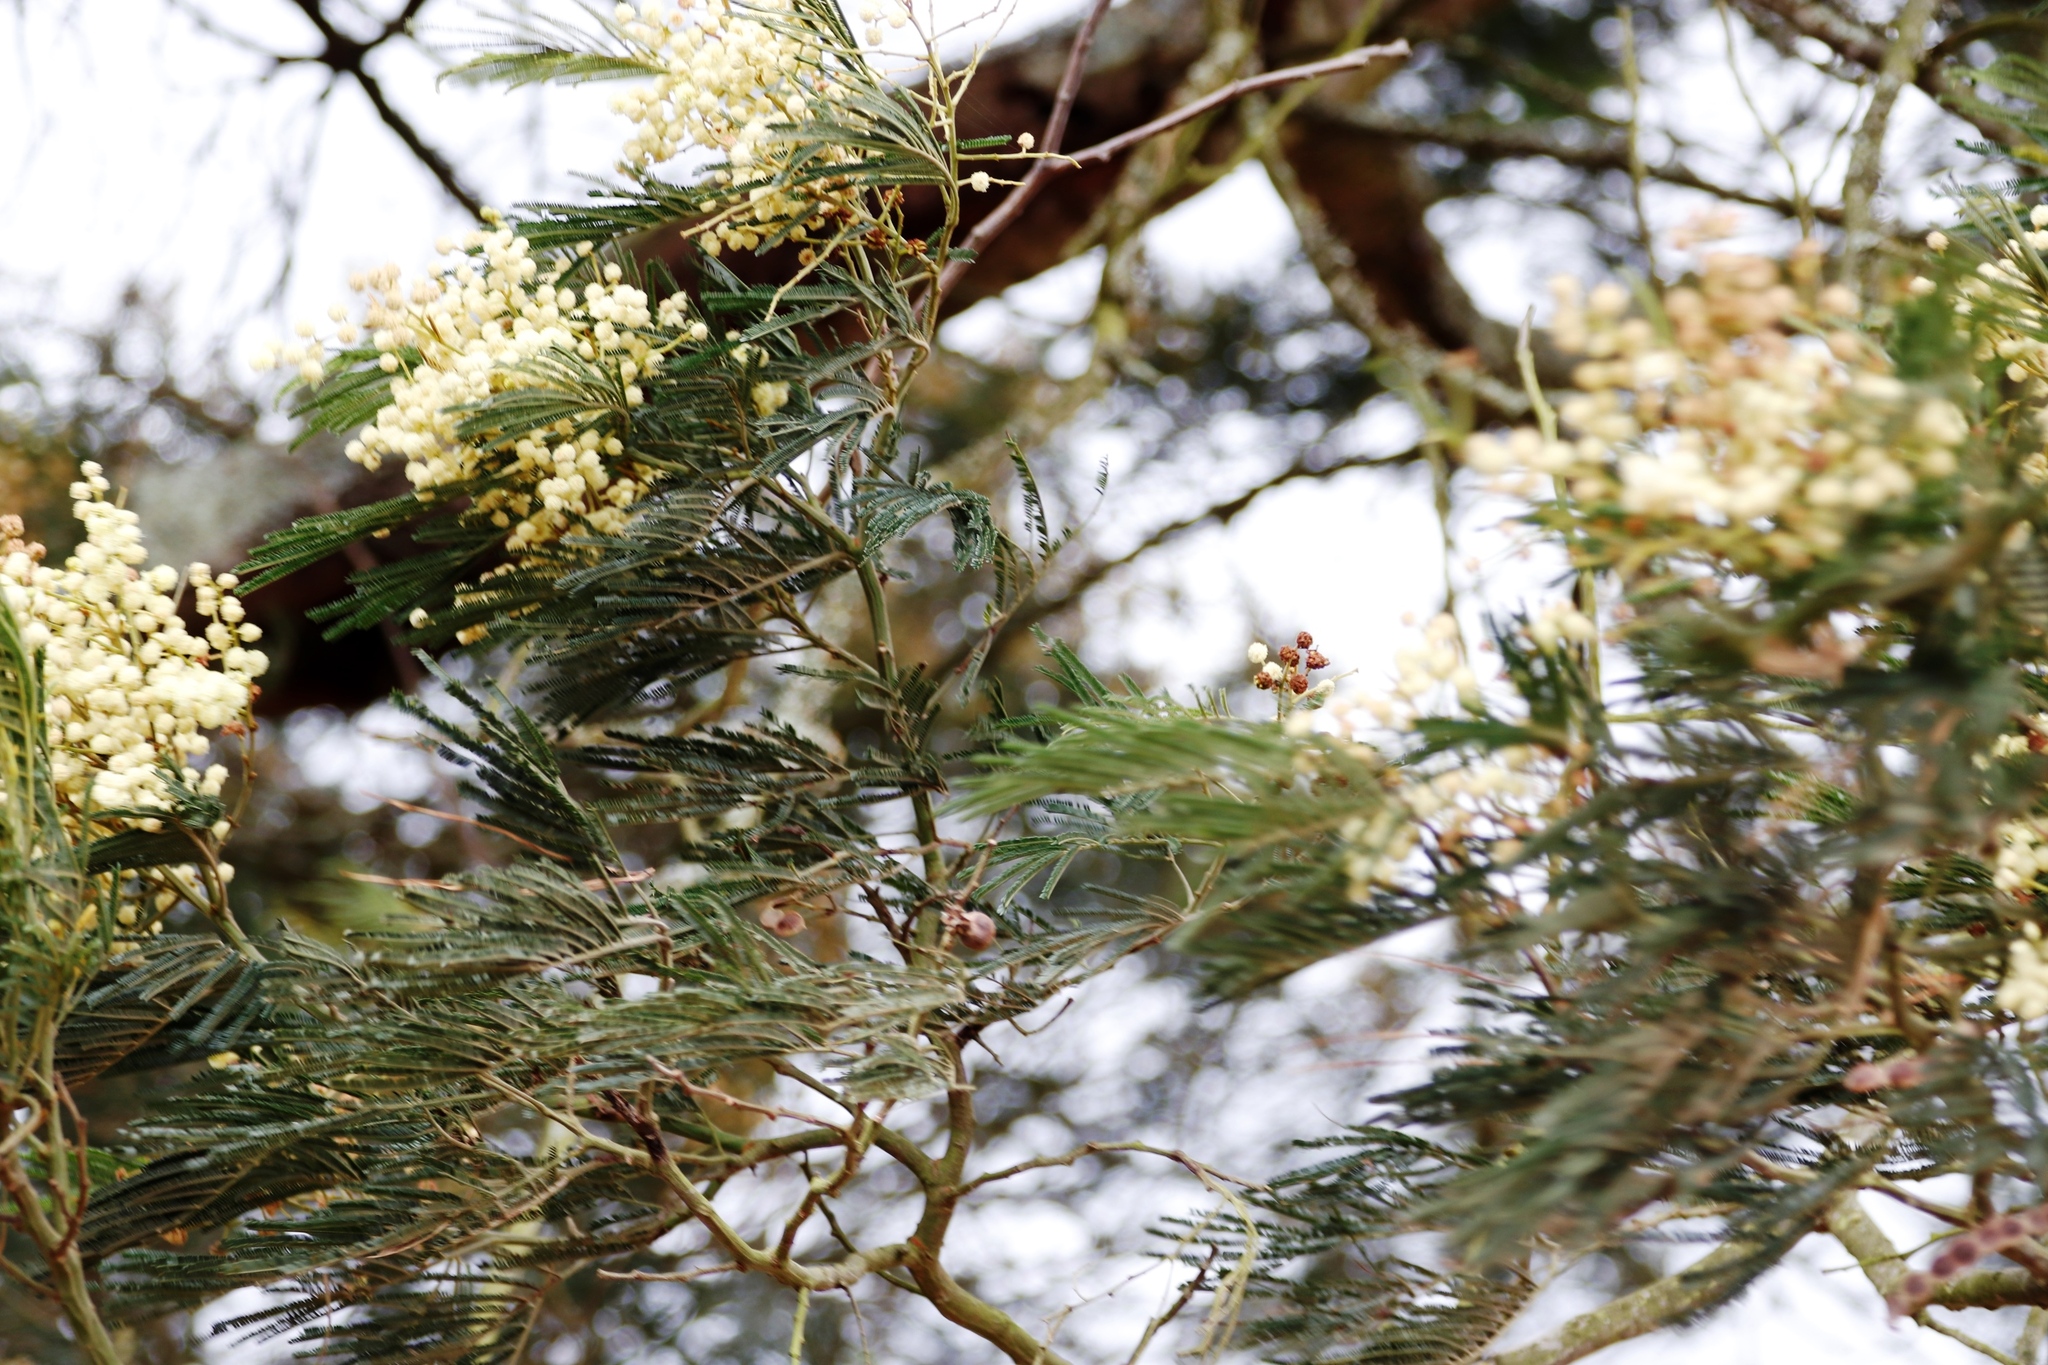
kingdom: Plantae
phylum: Tracheophyta
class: Magnoliopsida
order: Fabales
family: Fabaceae
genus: Acacia
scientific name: Acacia mearnsii
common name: Black wattle
